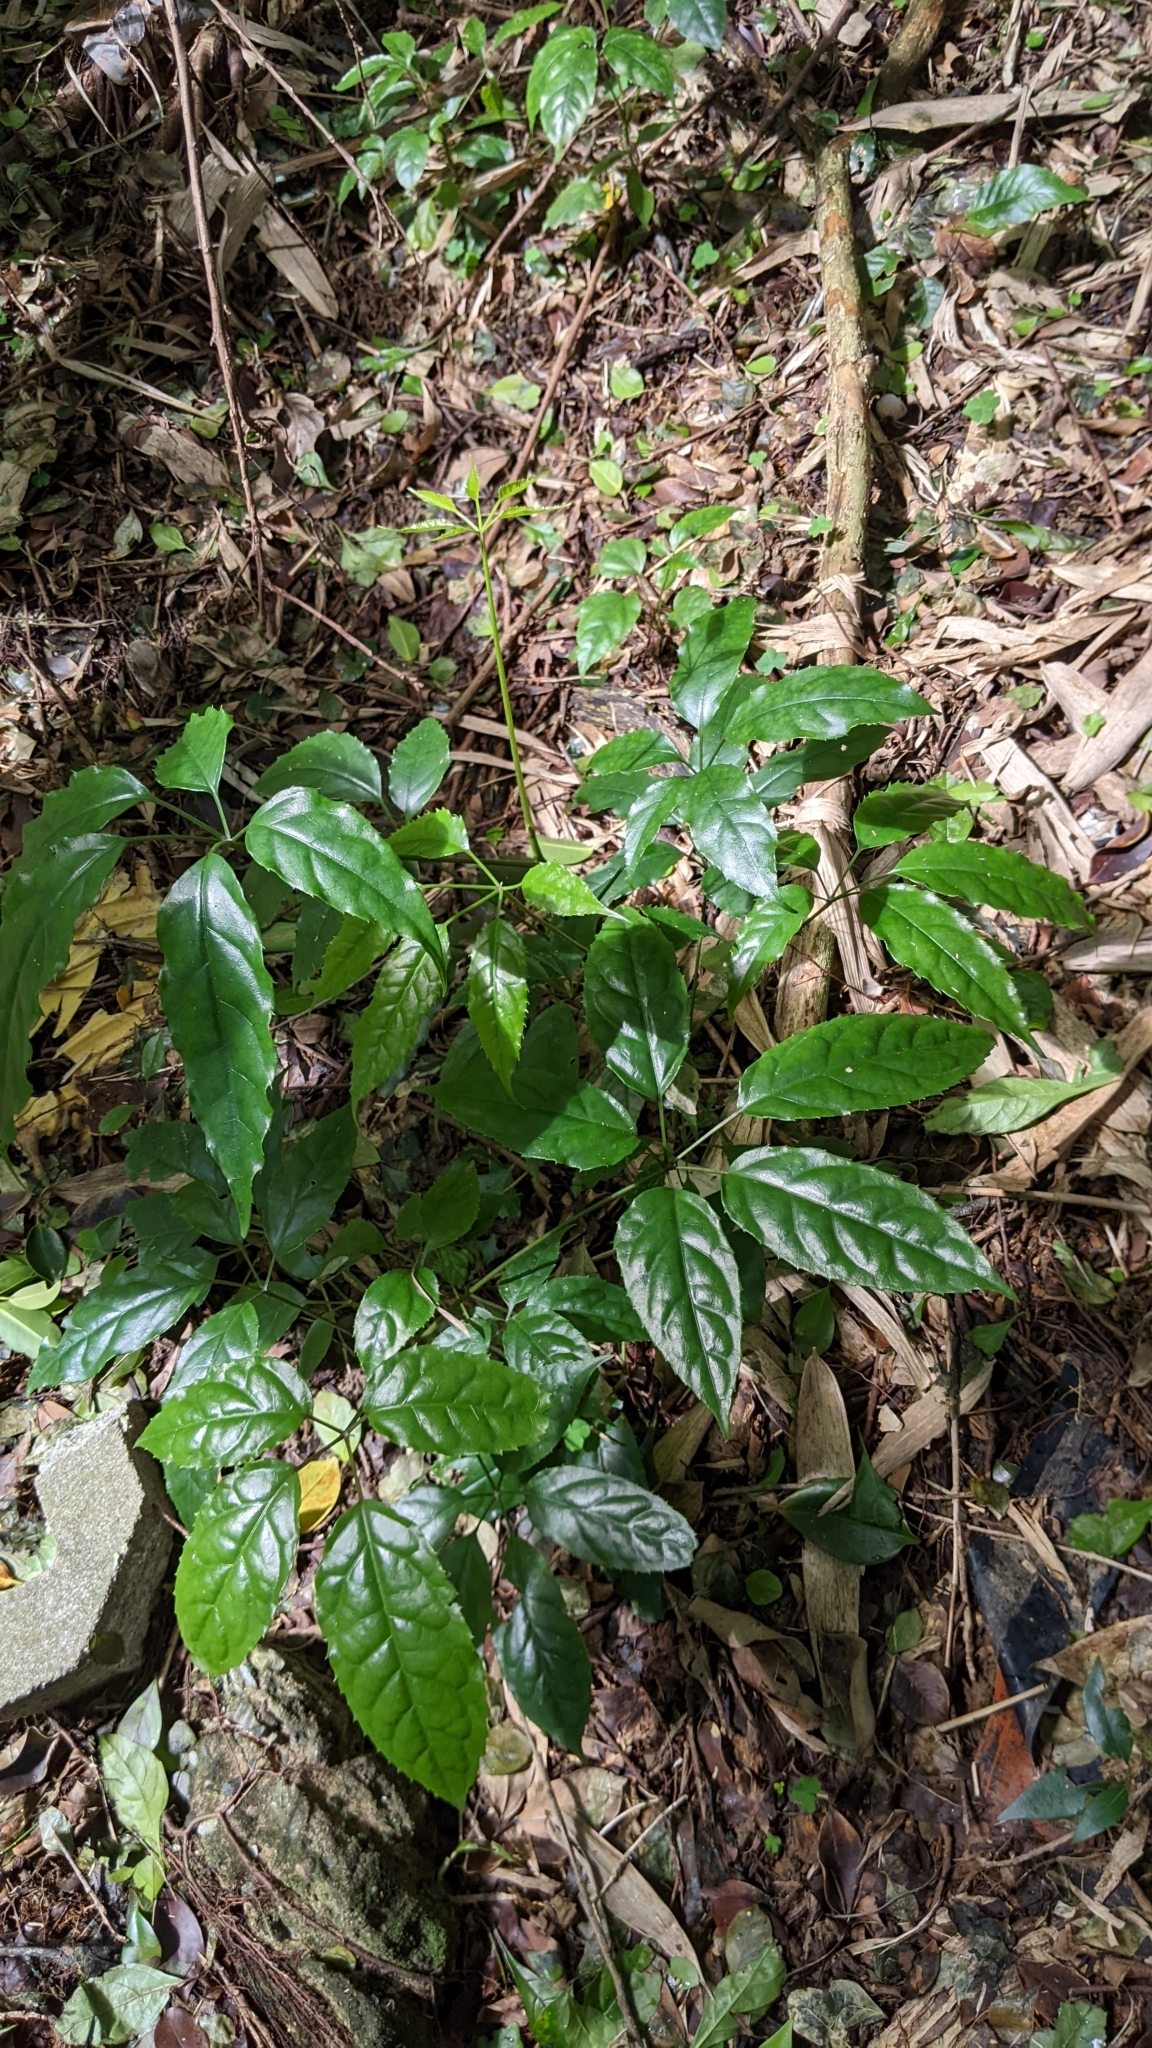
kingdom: Plantae
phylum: Tracheophyta
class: Magnoliopsida
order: Apiales
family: Araliaceae
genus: Heptapleurum
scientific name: Heptapleurum heptaphyllum
